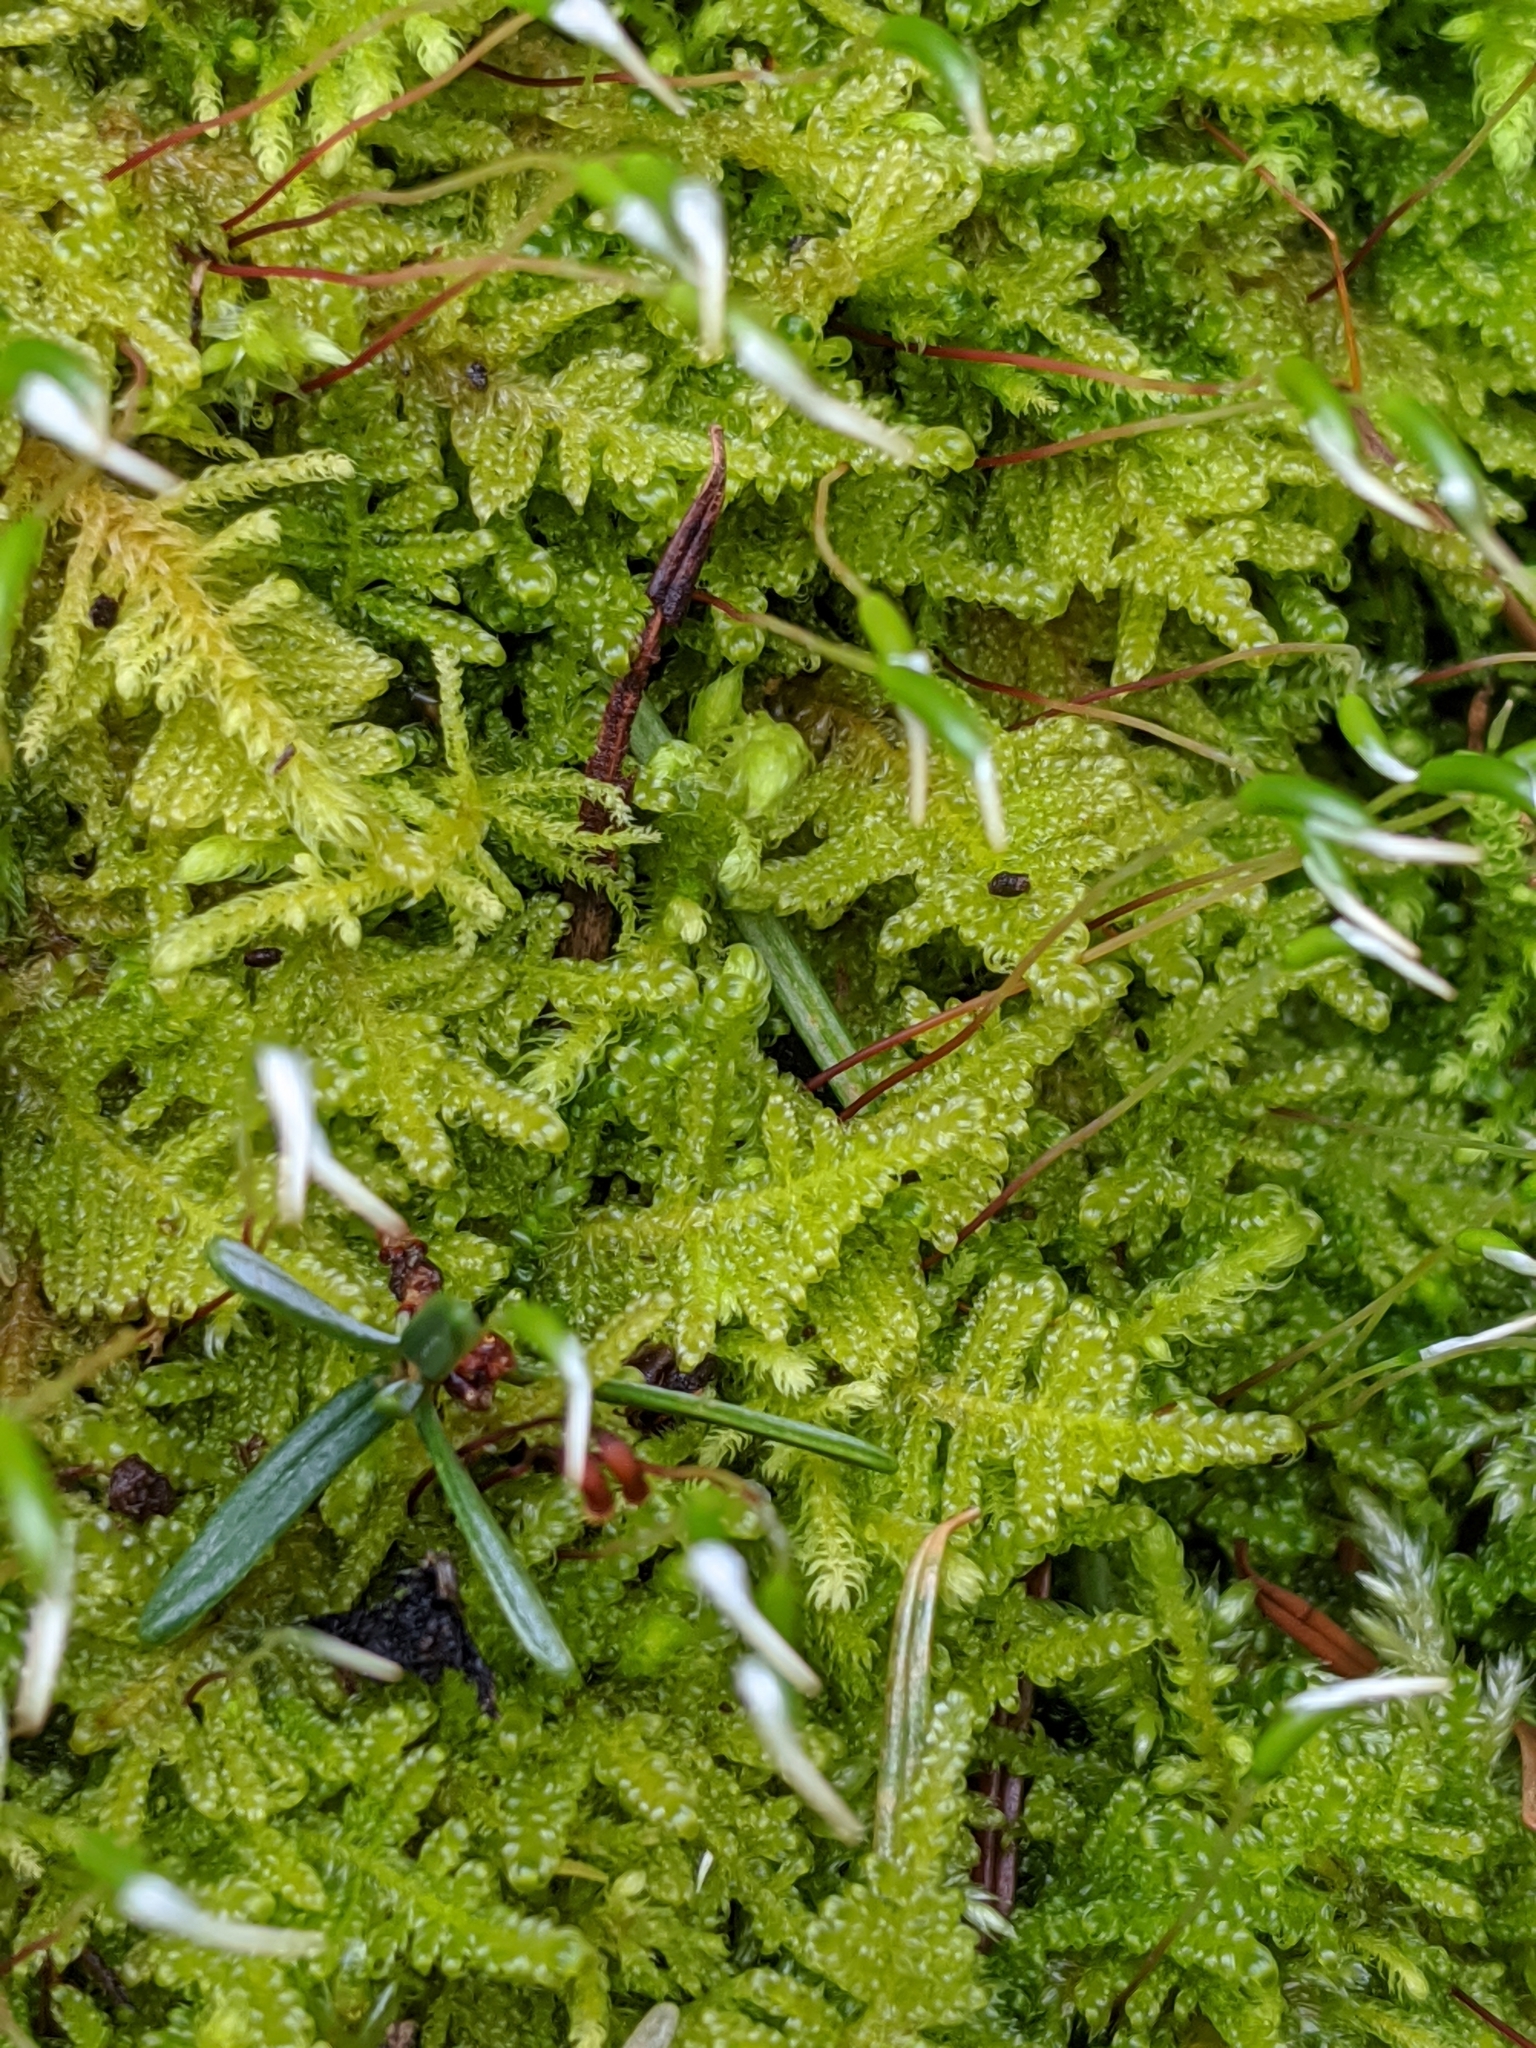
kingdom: Plantae
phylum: Bryophyta
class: Bryopsida
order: Hypnales
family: Stereodontaceae
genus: Stereodon
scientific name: Stereodon subimponens
